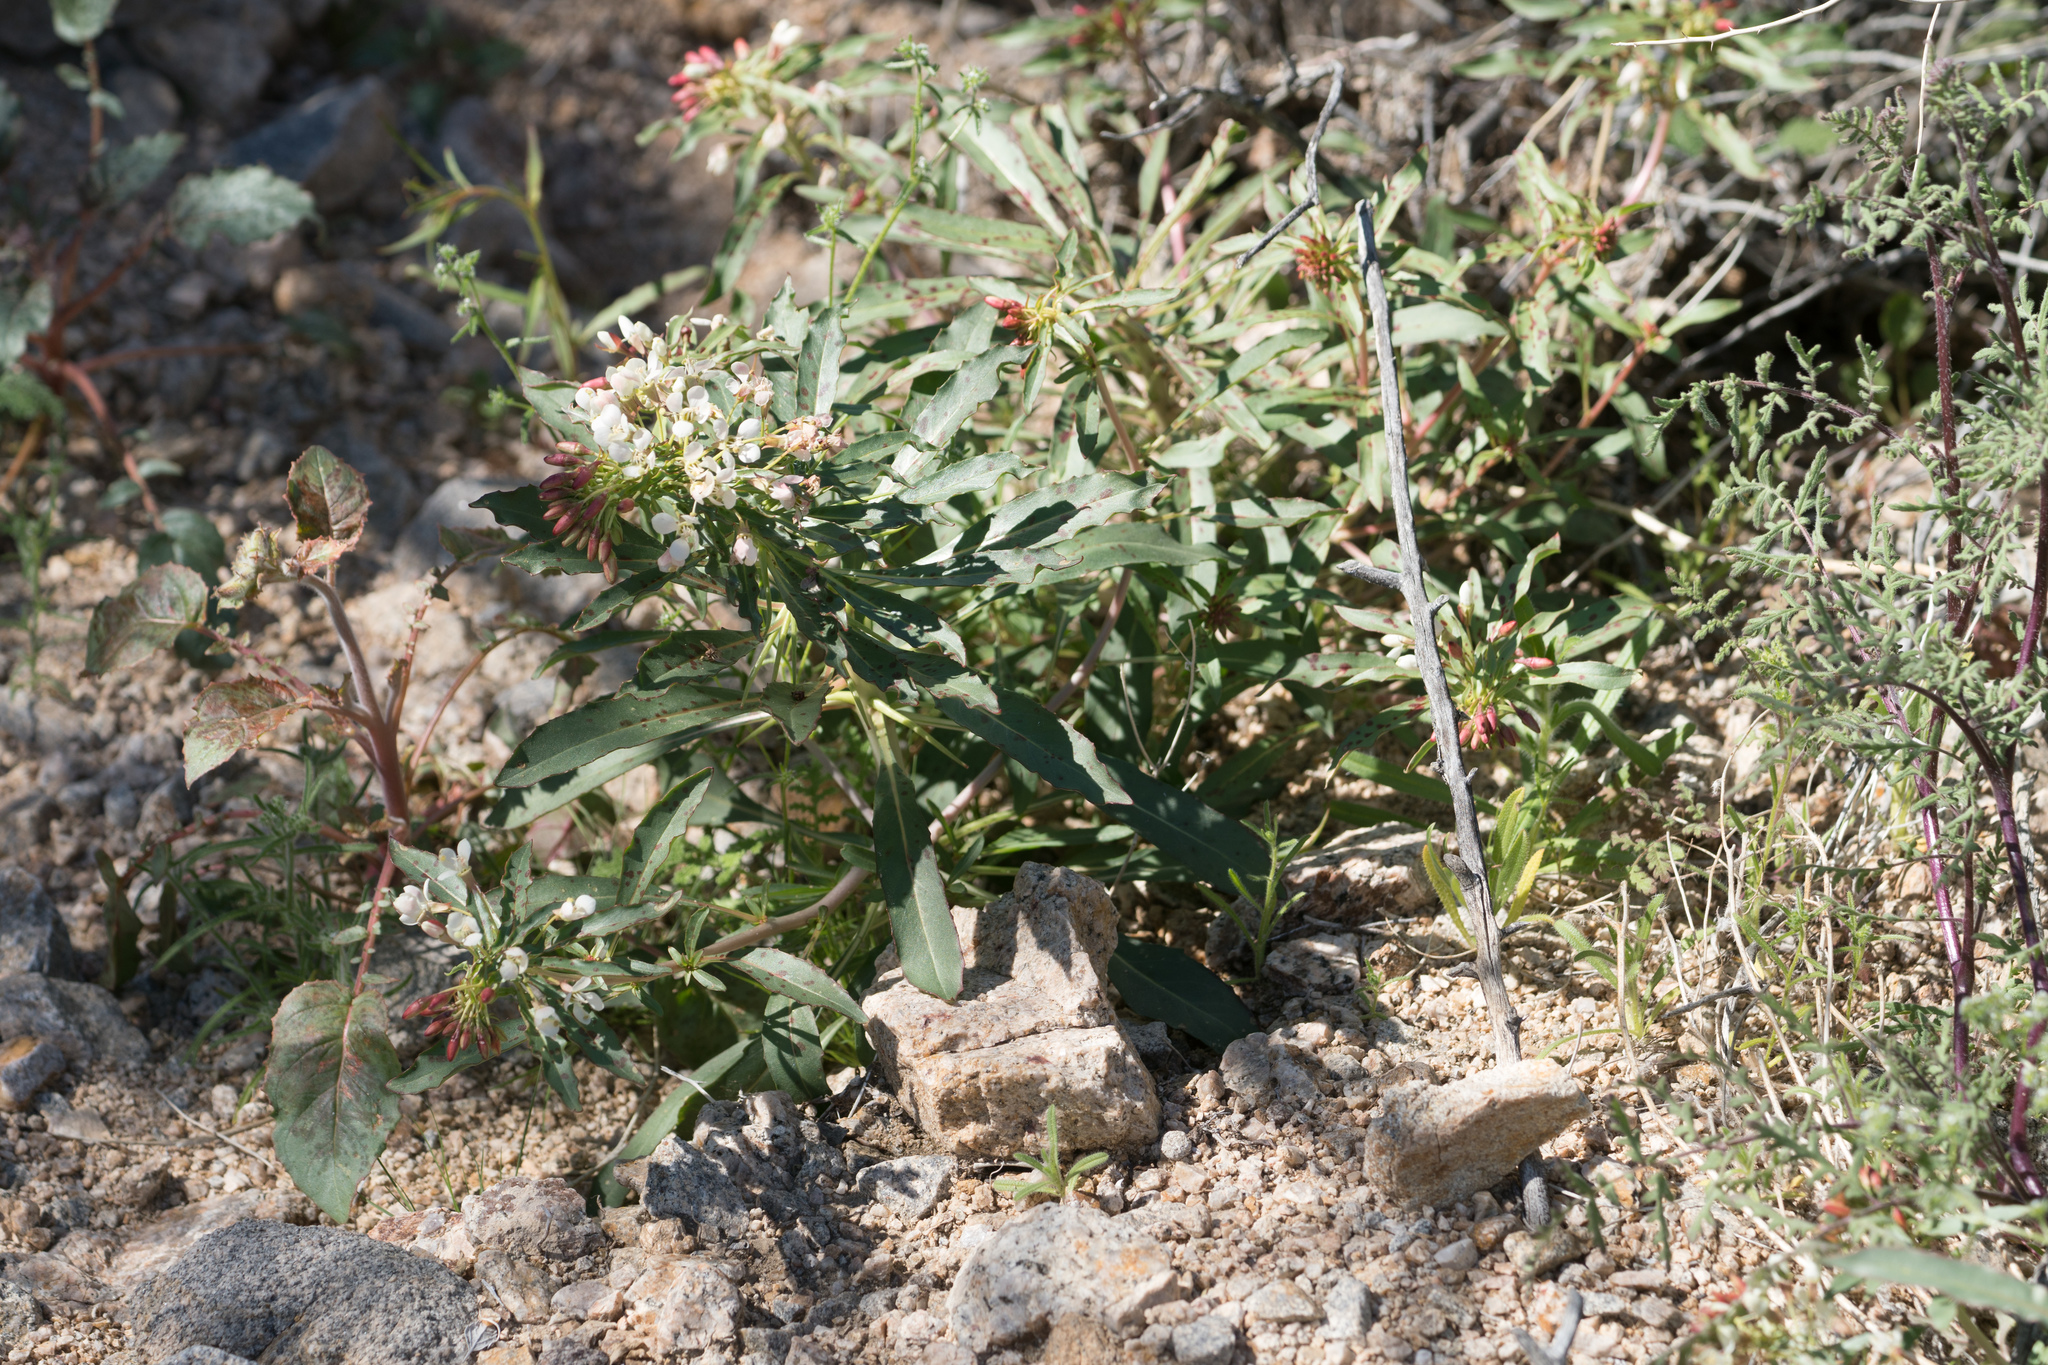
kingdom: Plantae
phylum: Tracheophyta
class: Magnoliopsida
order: Myrtales
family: Onagraceae
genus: Eremothera
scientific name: Eremothera boothii
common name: Booth's evening primrose
